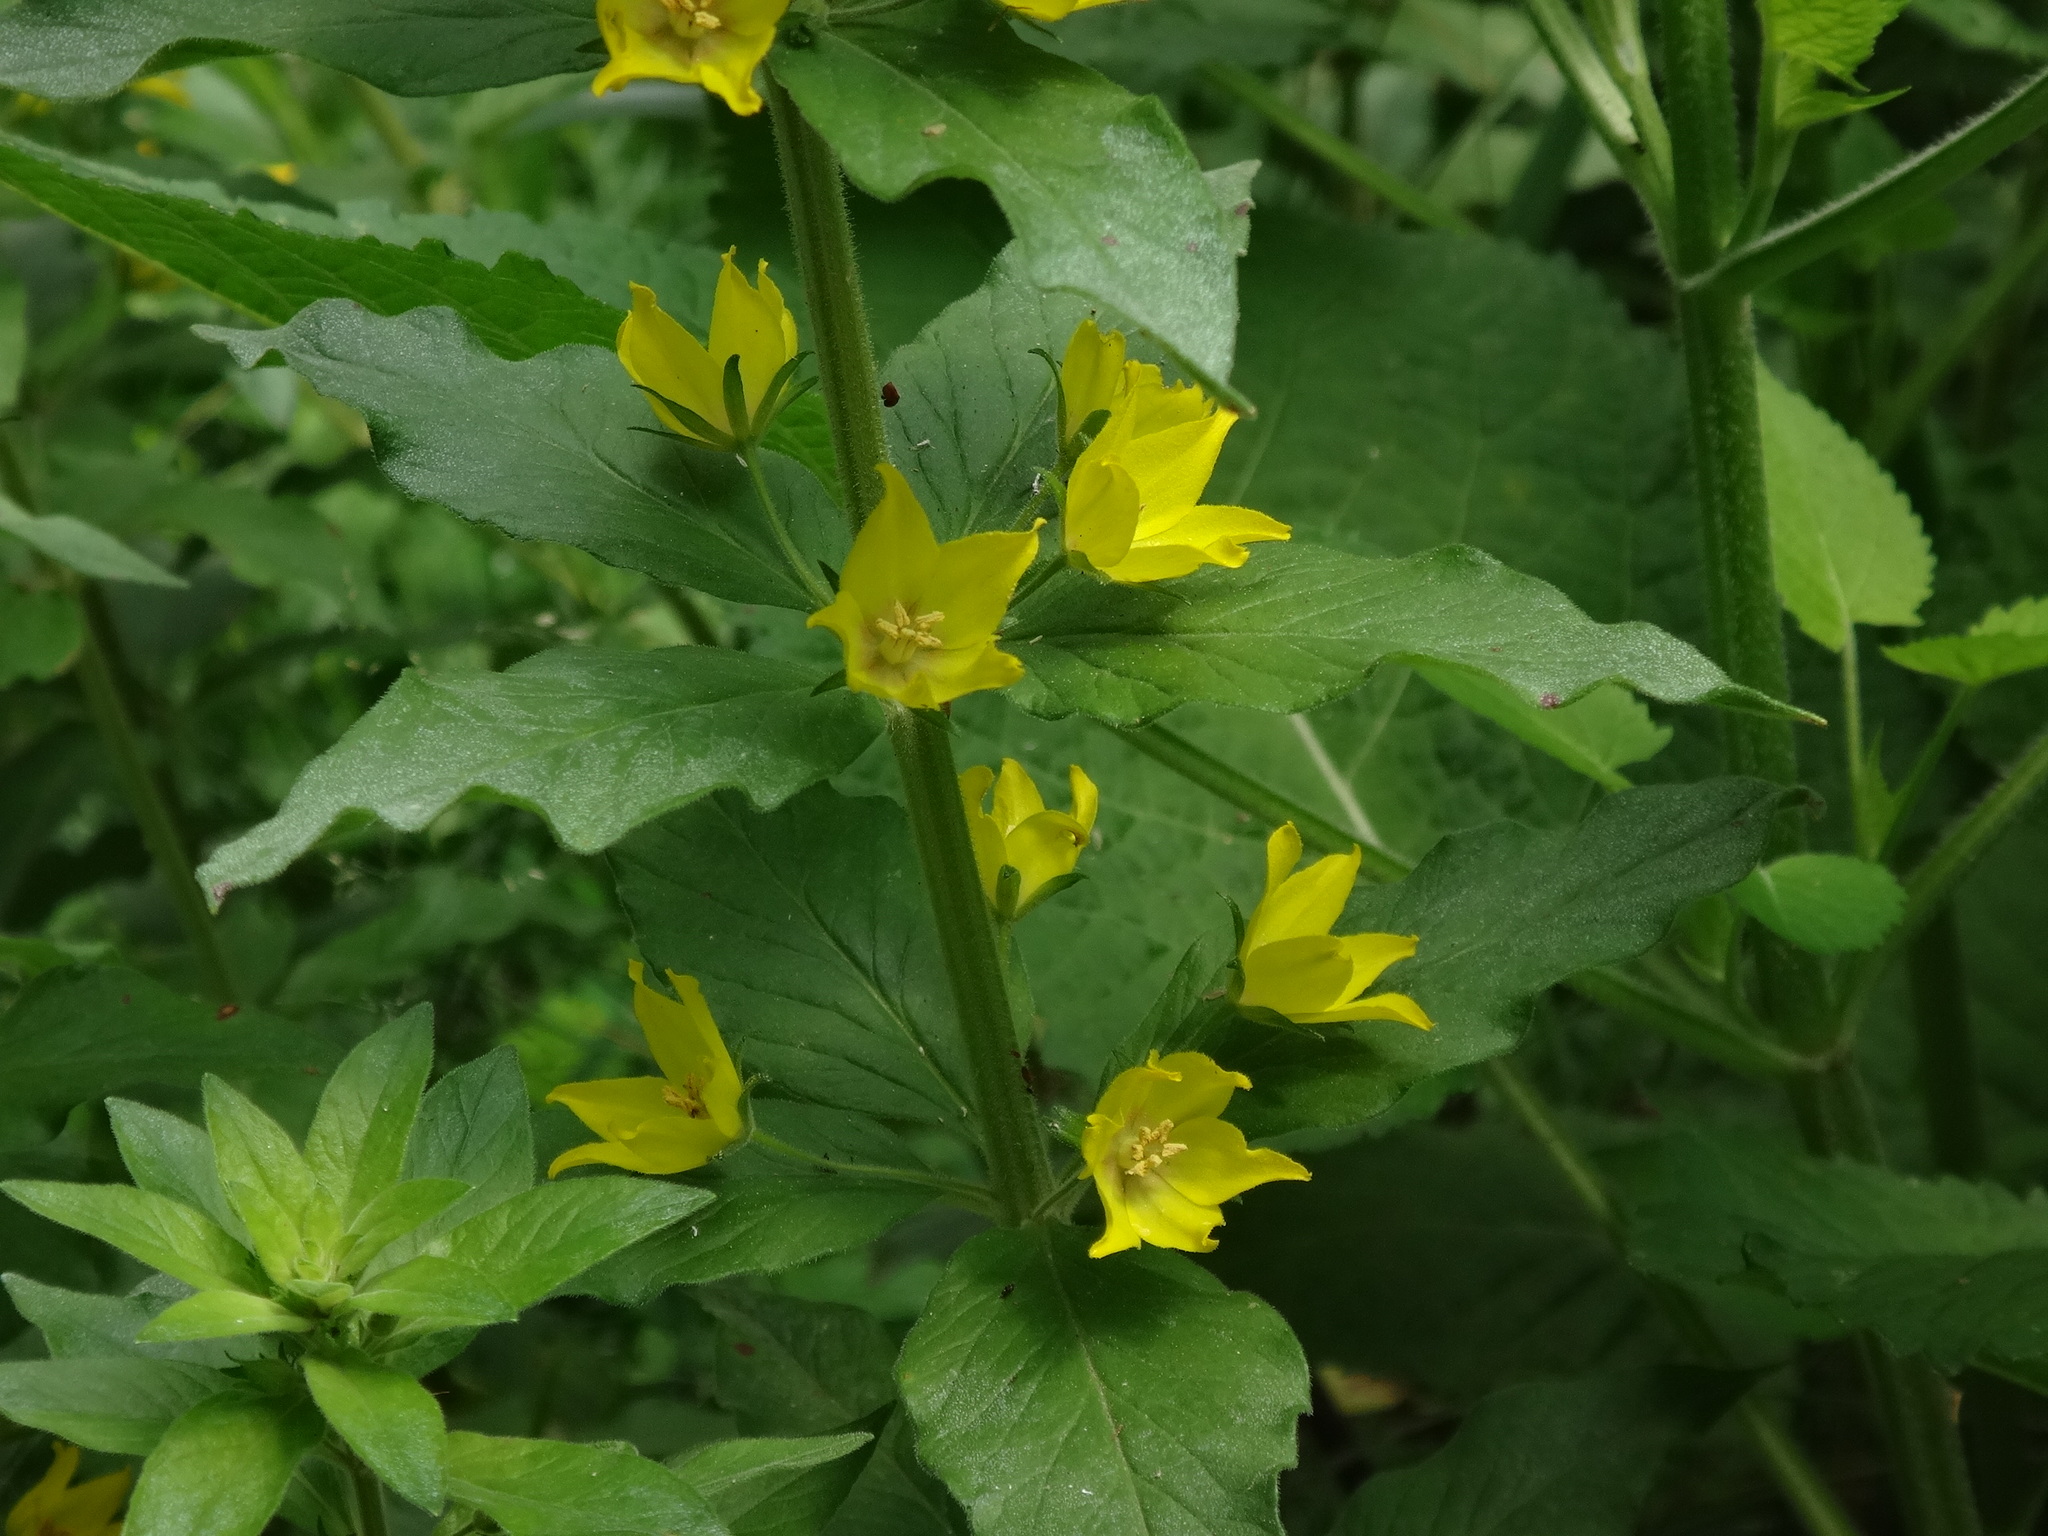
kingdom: Plantae
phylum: Tracheophyta
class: Magnoliopsida
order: Ericales
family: Primulaceae
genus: Lysimachia
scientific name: Lysimachia punctata
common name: Dotted loosestrife
